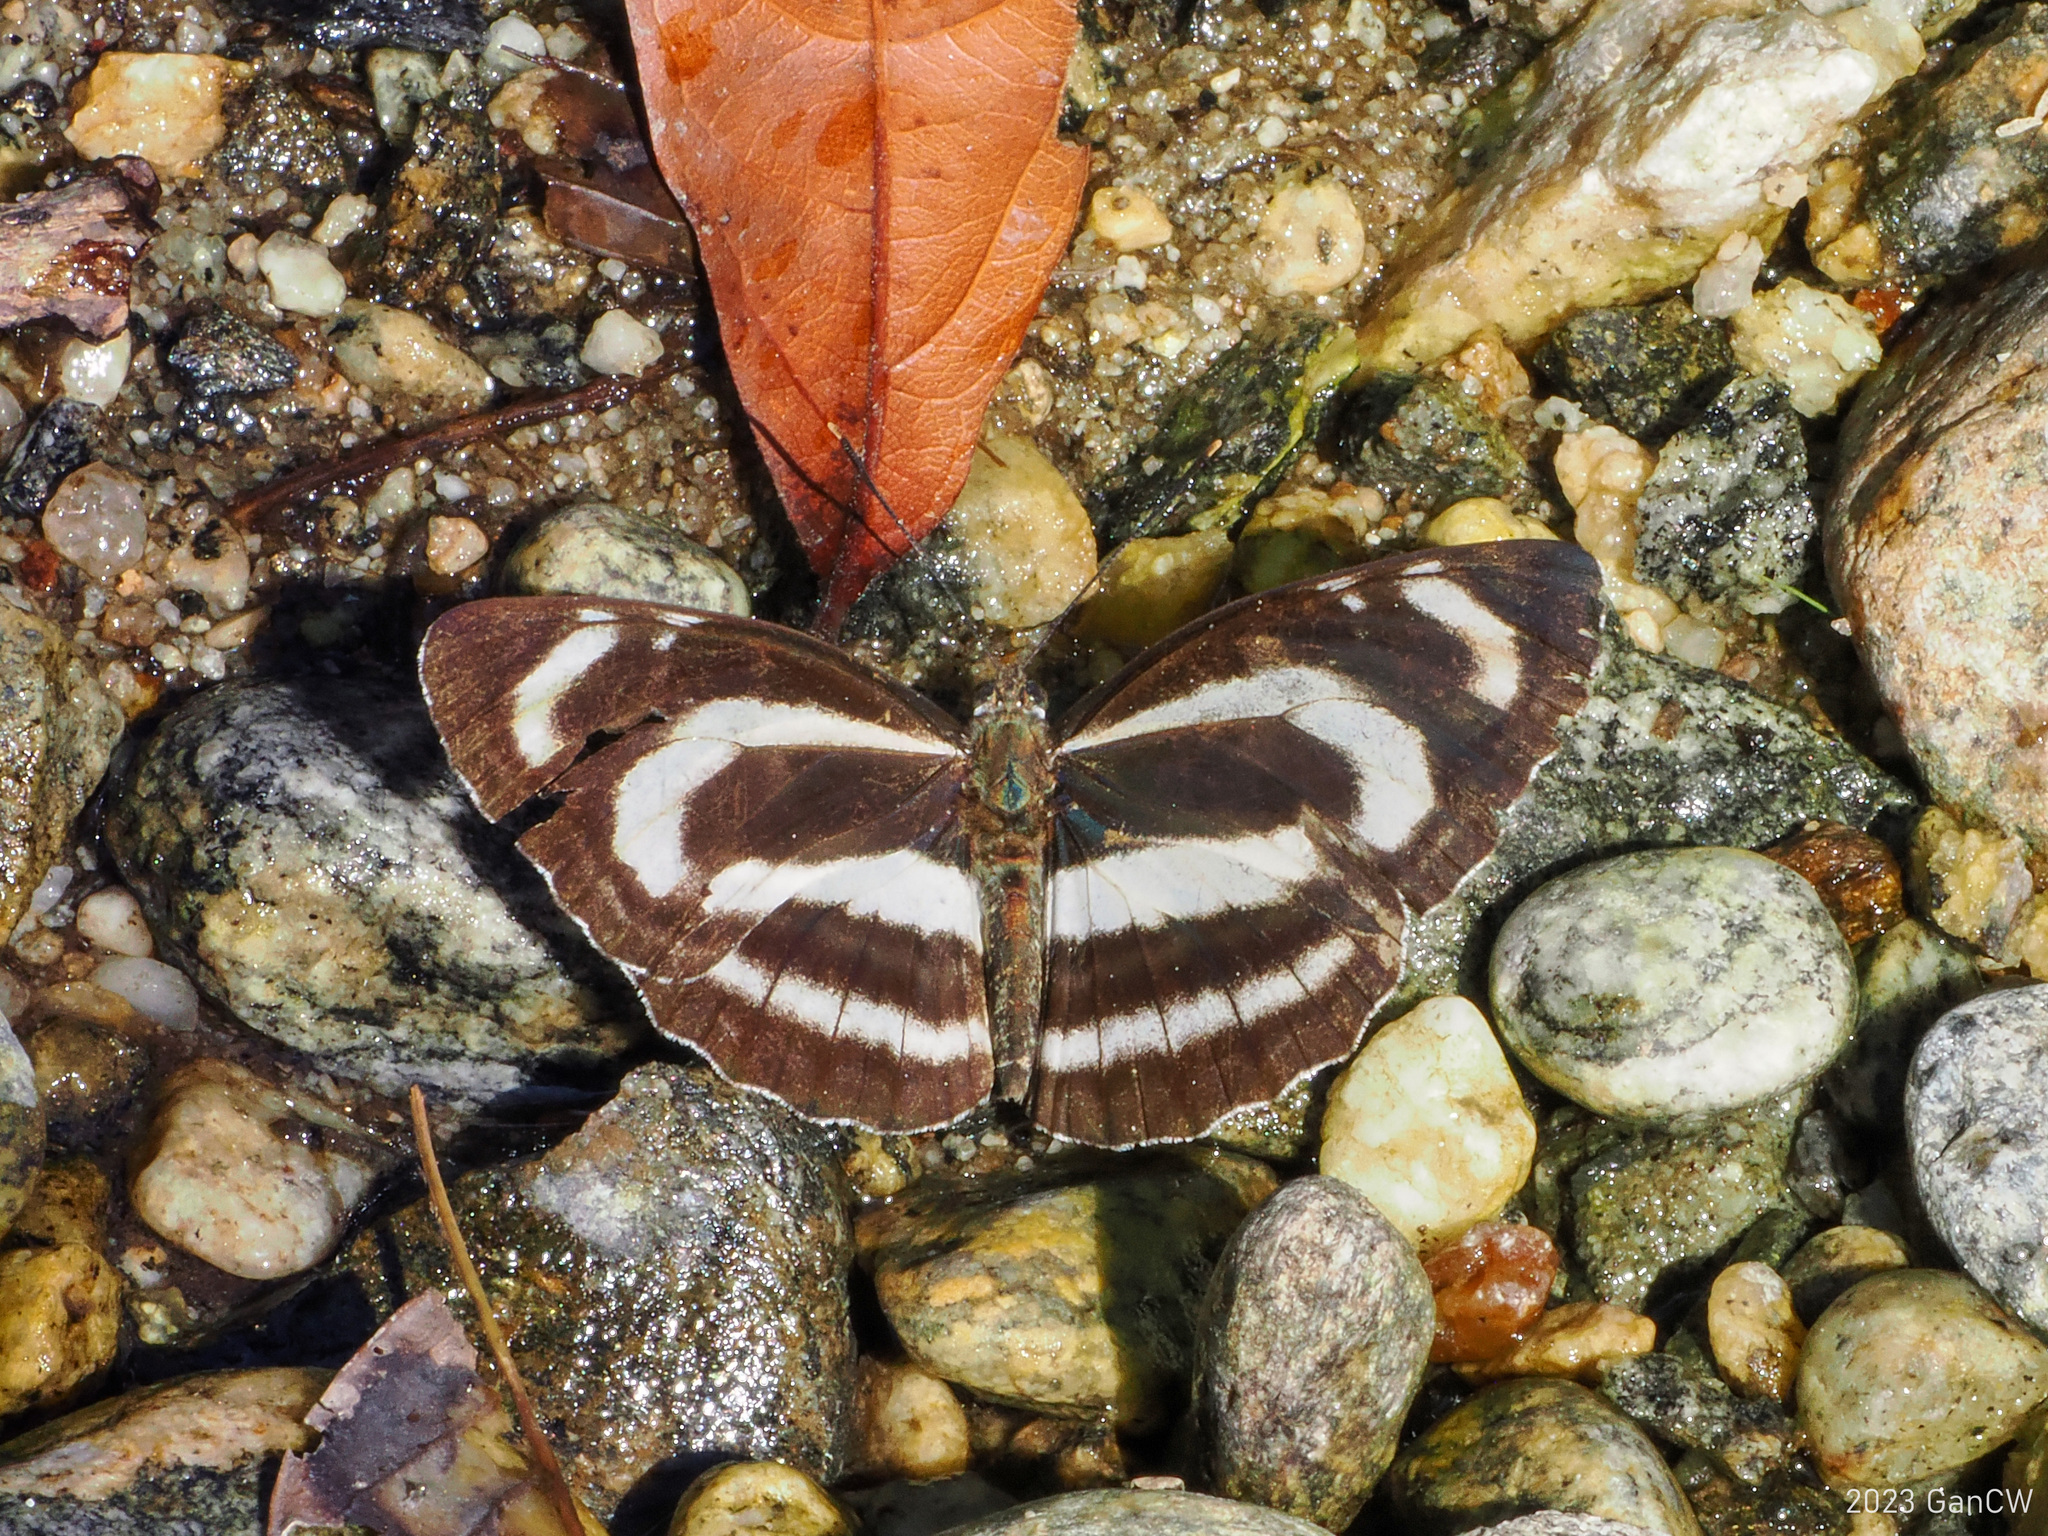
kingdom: Animalia
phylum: Arthropoda
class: Insecta
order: Lepidoptera
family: Nymphalidae
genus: Neptis
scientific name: Neptis manasa
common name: Pale hockeystick sailer
